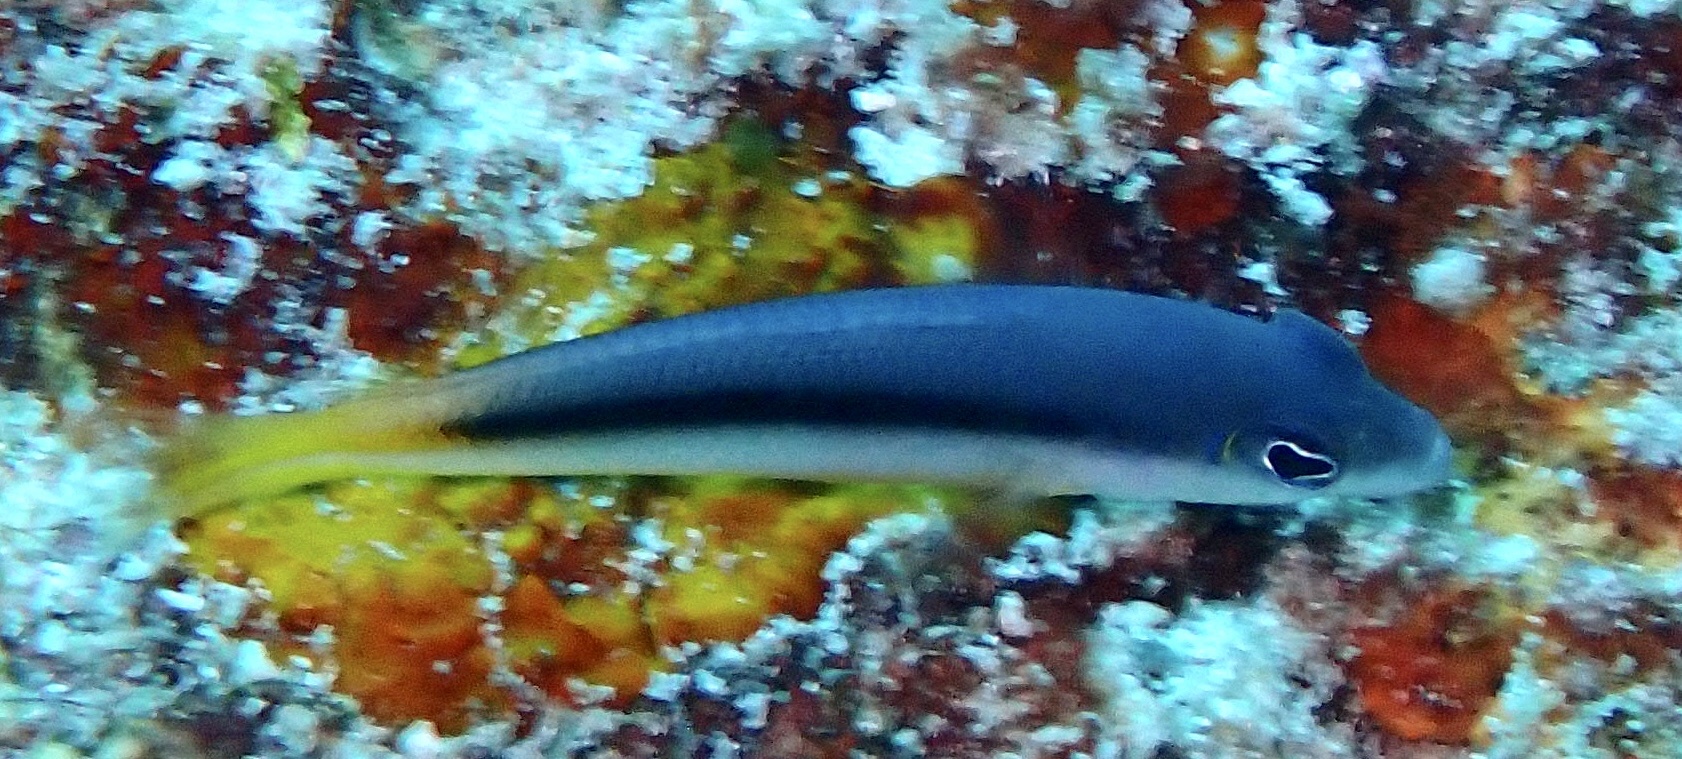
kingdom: Animalia
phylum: Chordata
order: Perciformes
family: Pseudochromidae
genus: Pseudochromis
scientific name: Pseudochromis ammeri
